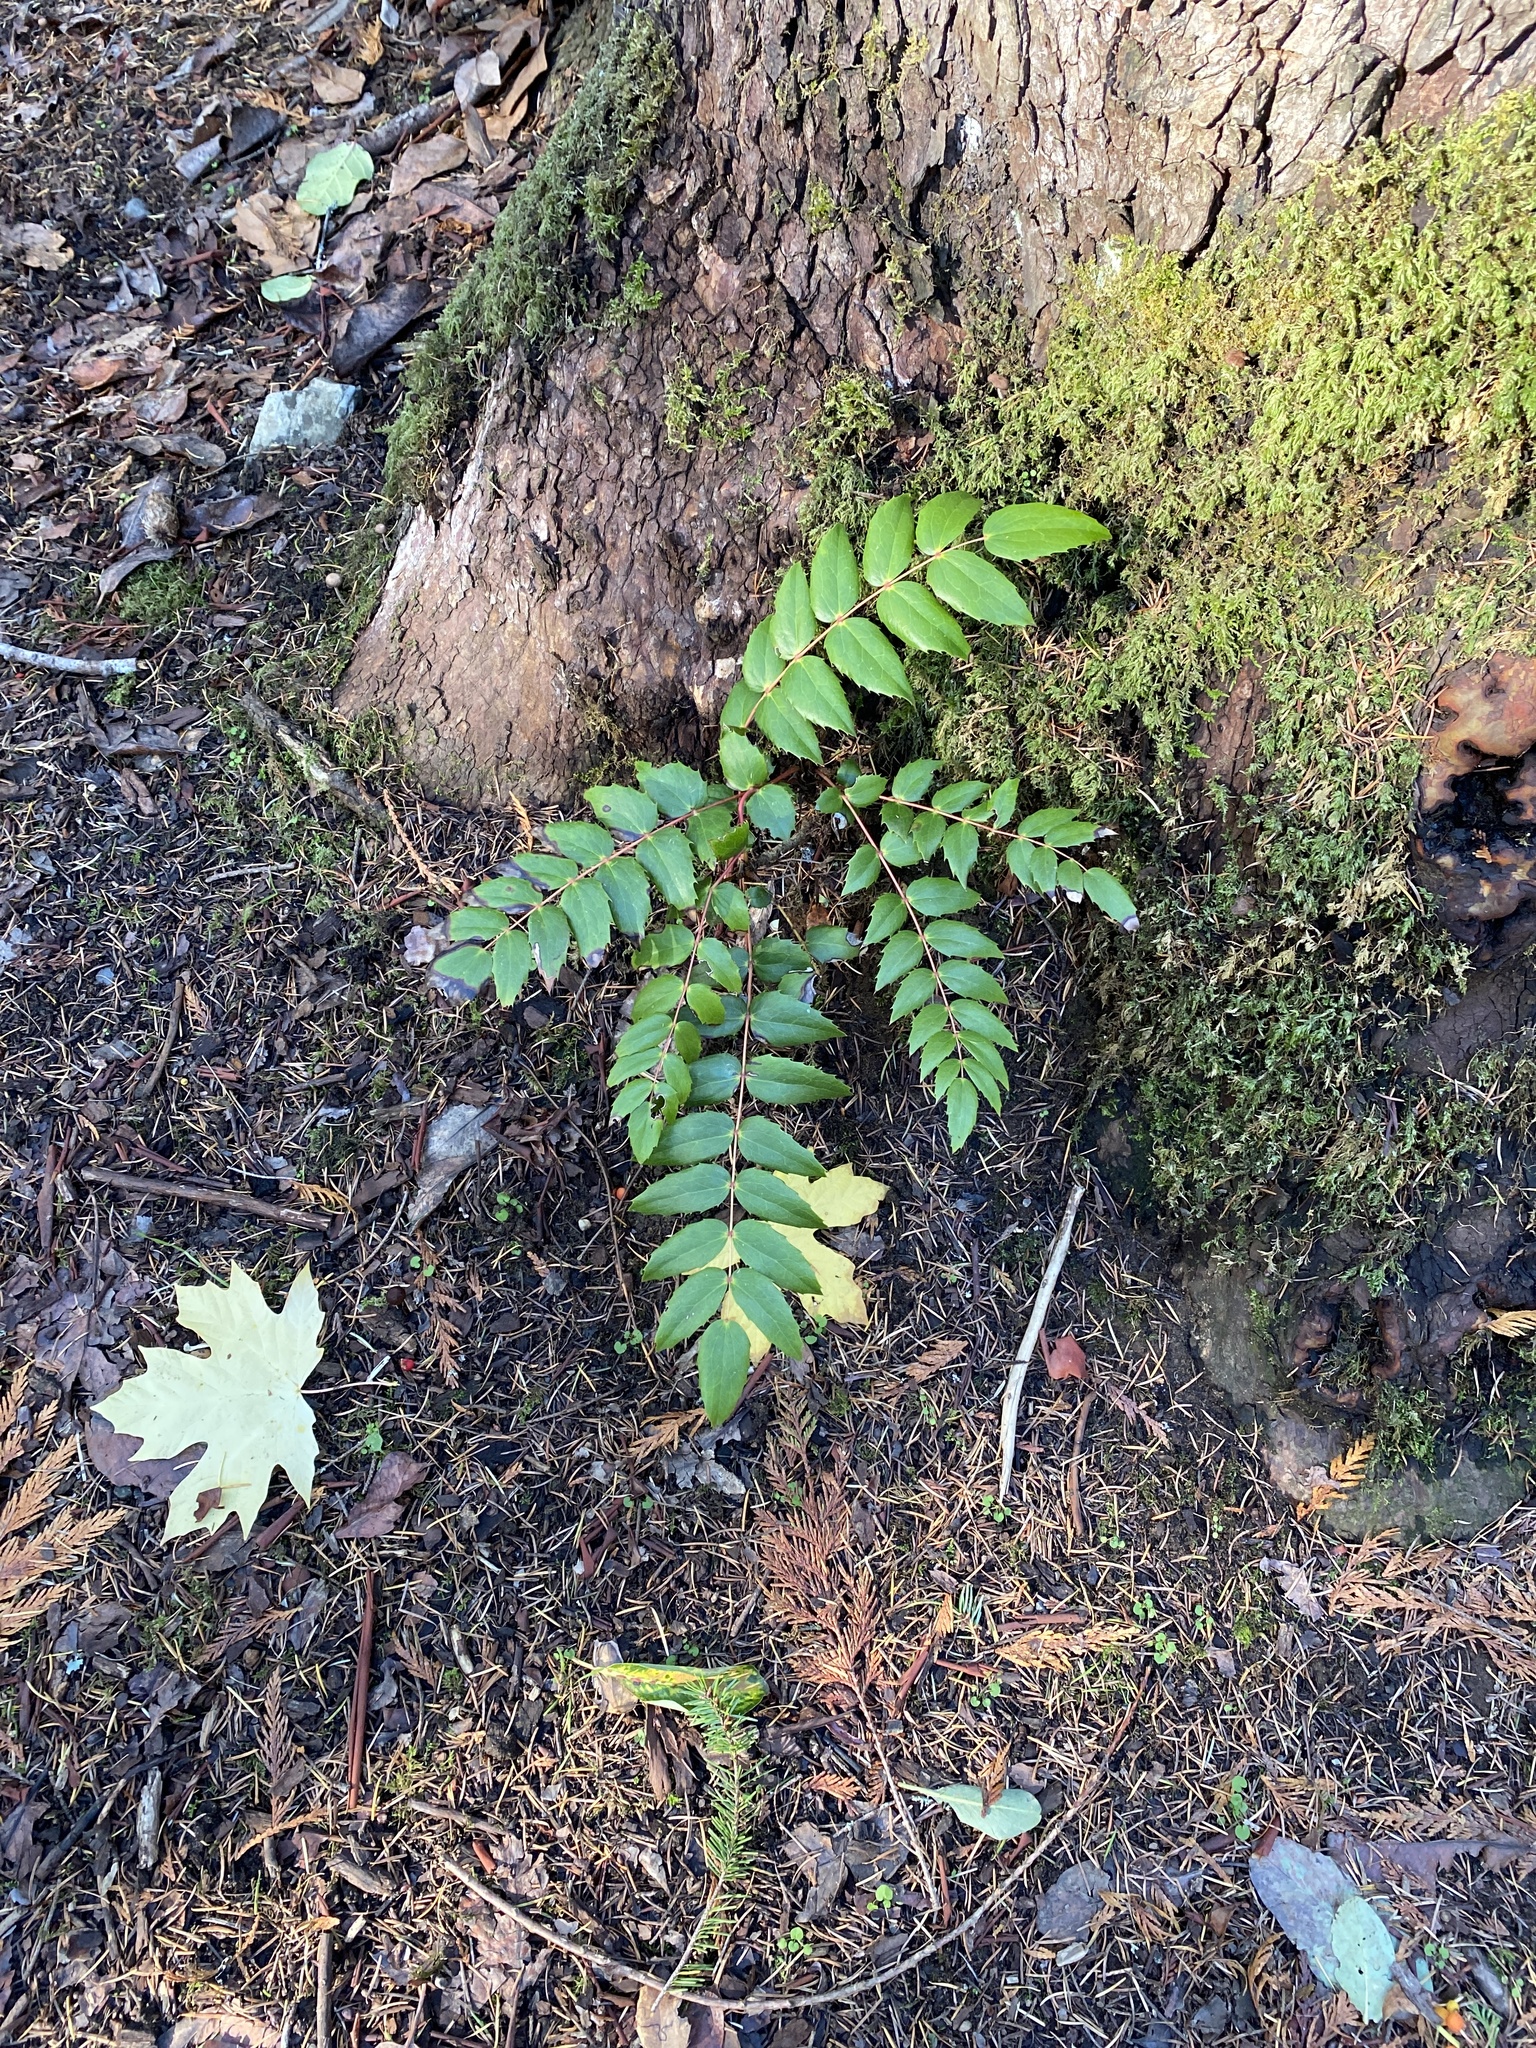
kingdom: Plantae
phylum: Tracheophyta
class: Magnoliopsida
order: Ranunculales
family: Berberidaceae
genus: Mahonia
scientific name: Mahonia nervosa
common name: Cascade oregon-grape
